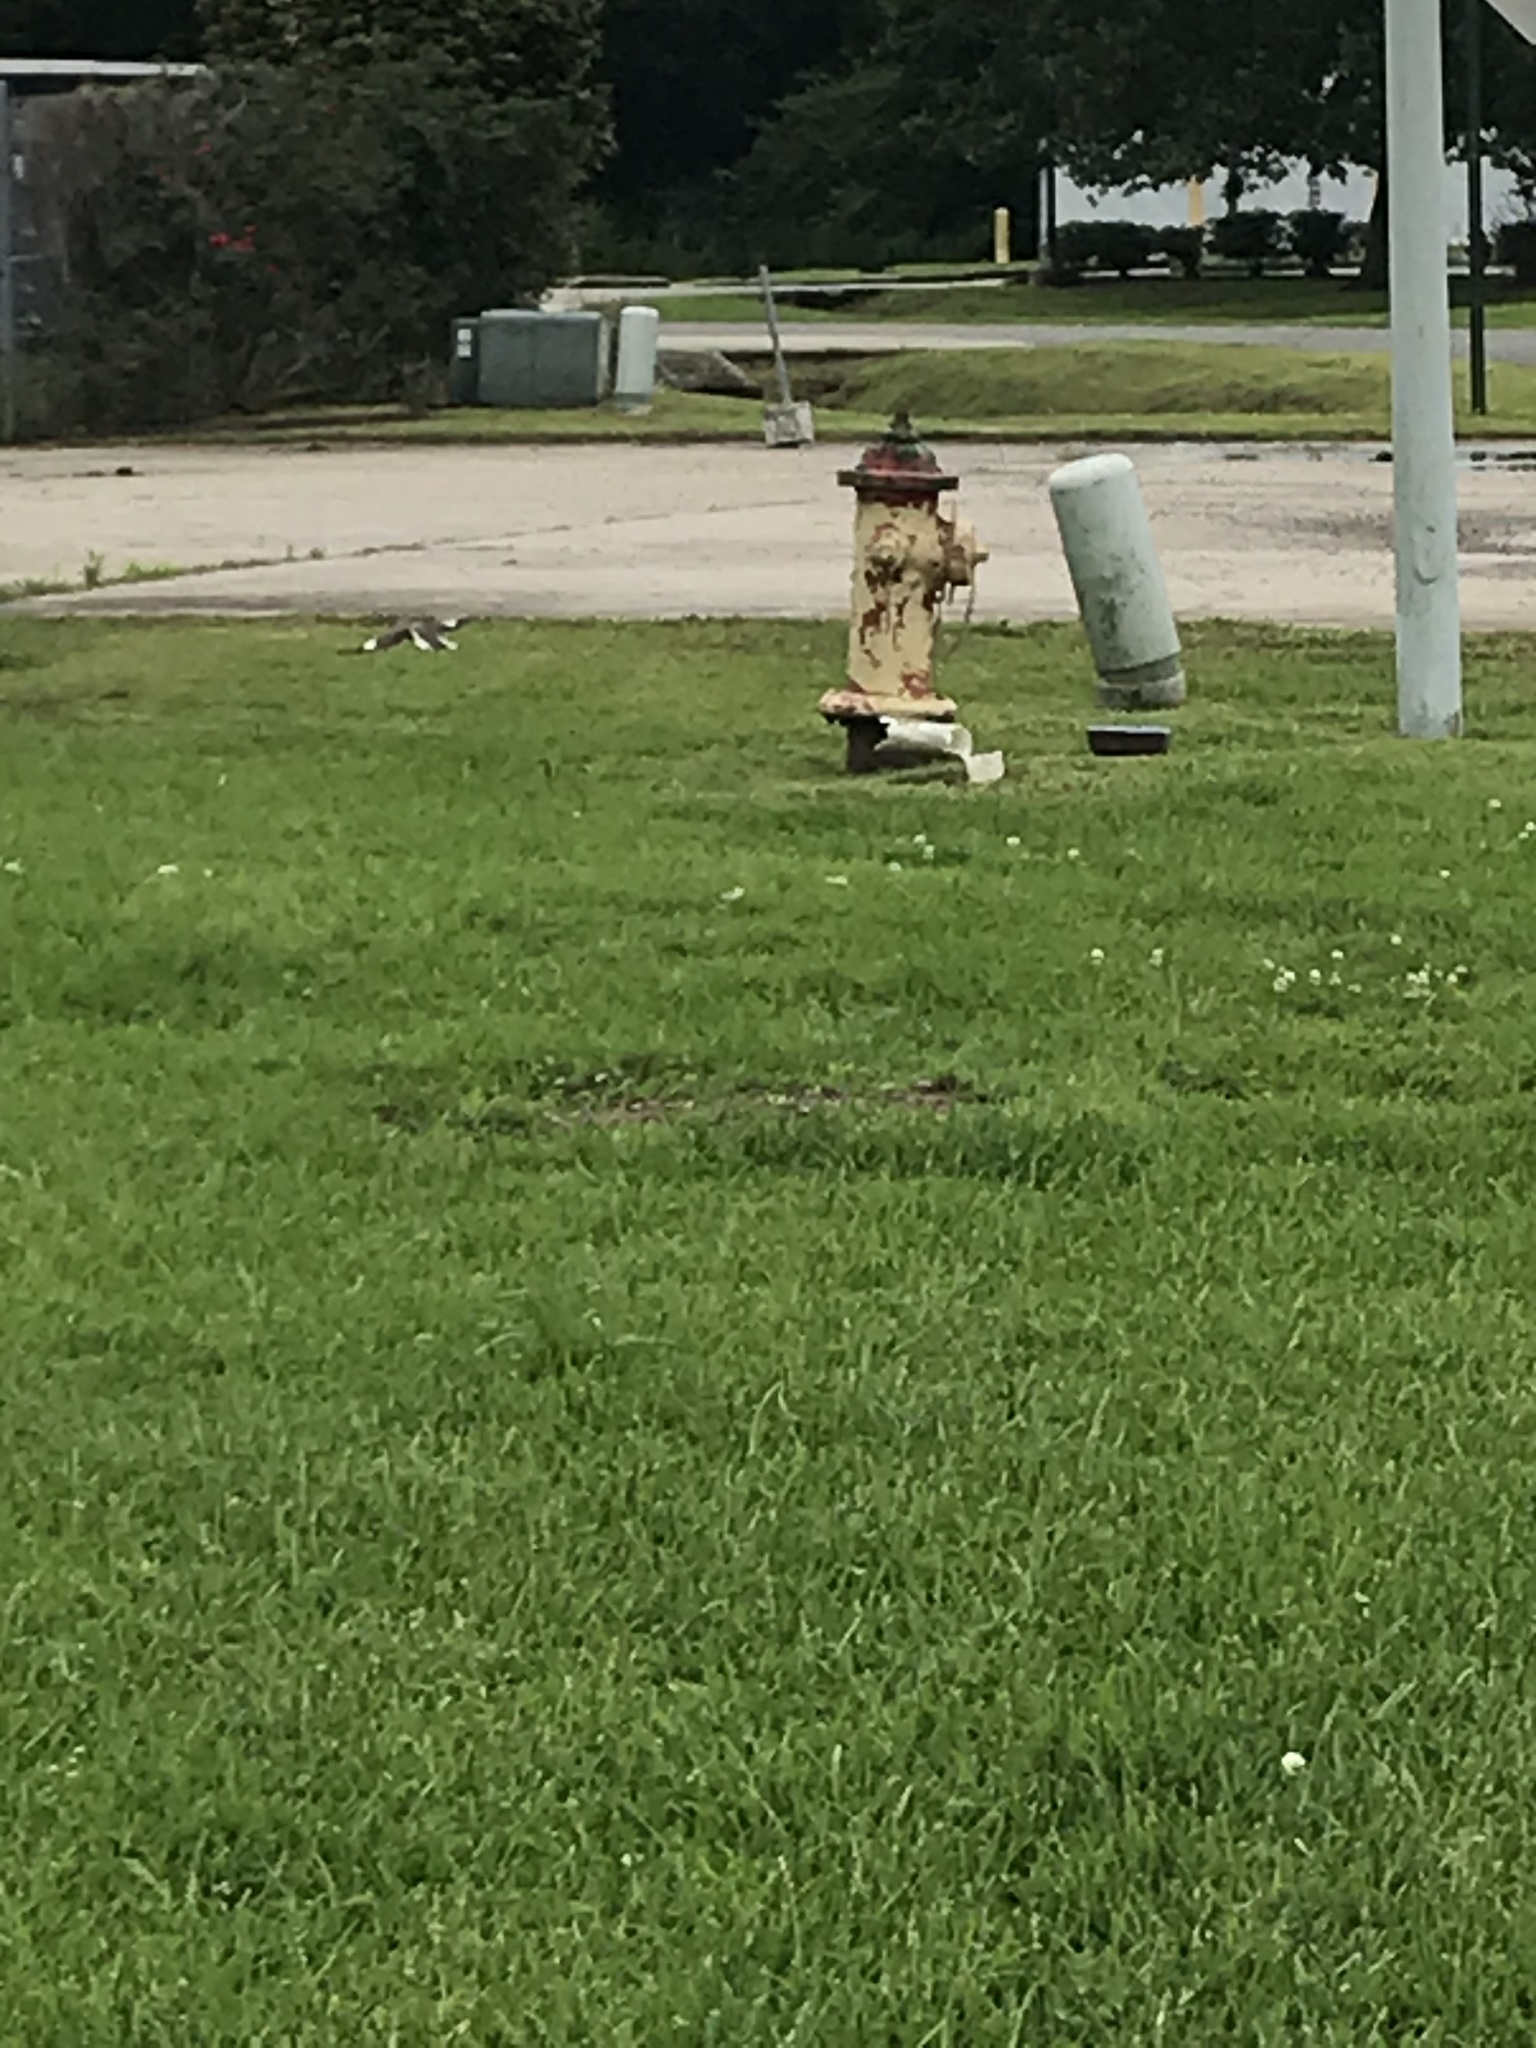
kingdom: Animalia
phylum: Chordata
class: Aves
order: Passeriformes
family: Mimidae
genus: Mimus
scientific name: Mimus polyglottos
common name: Northern mockingbird
